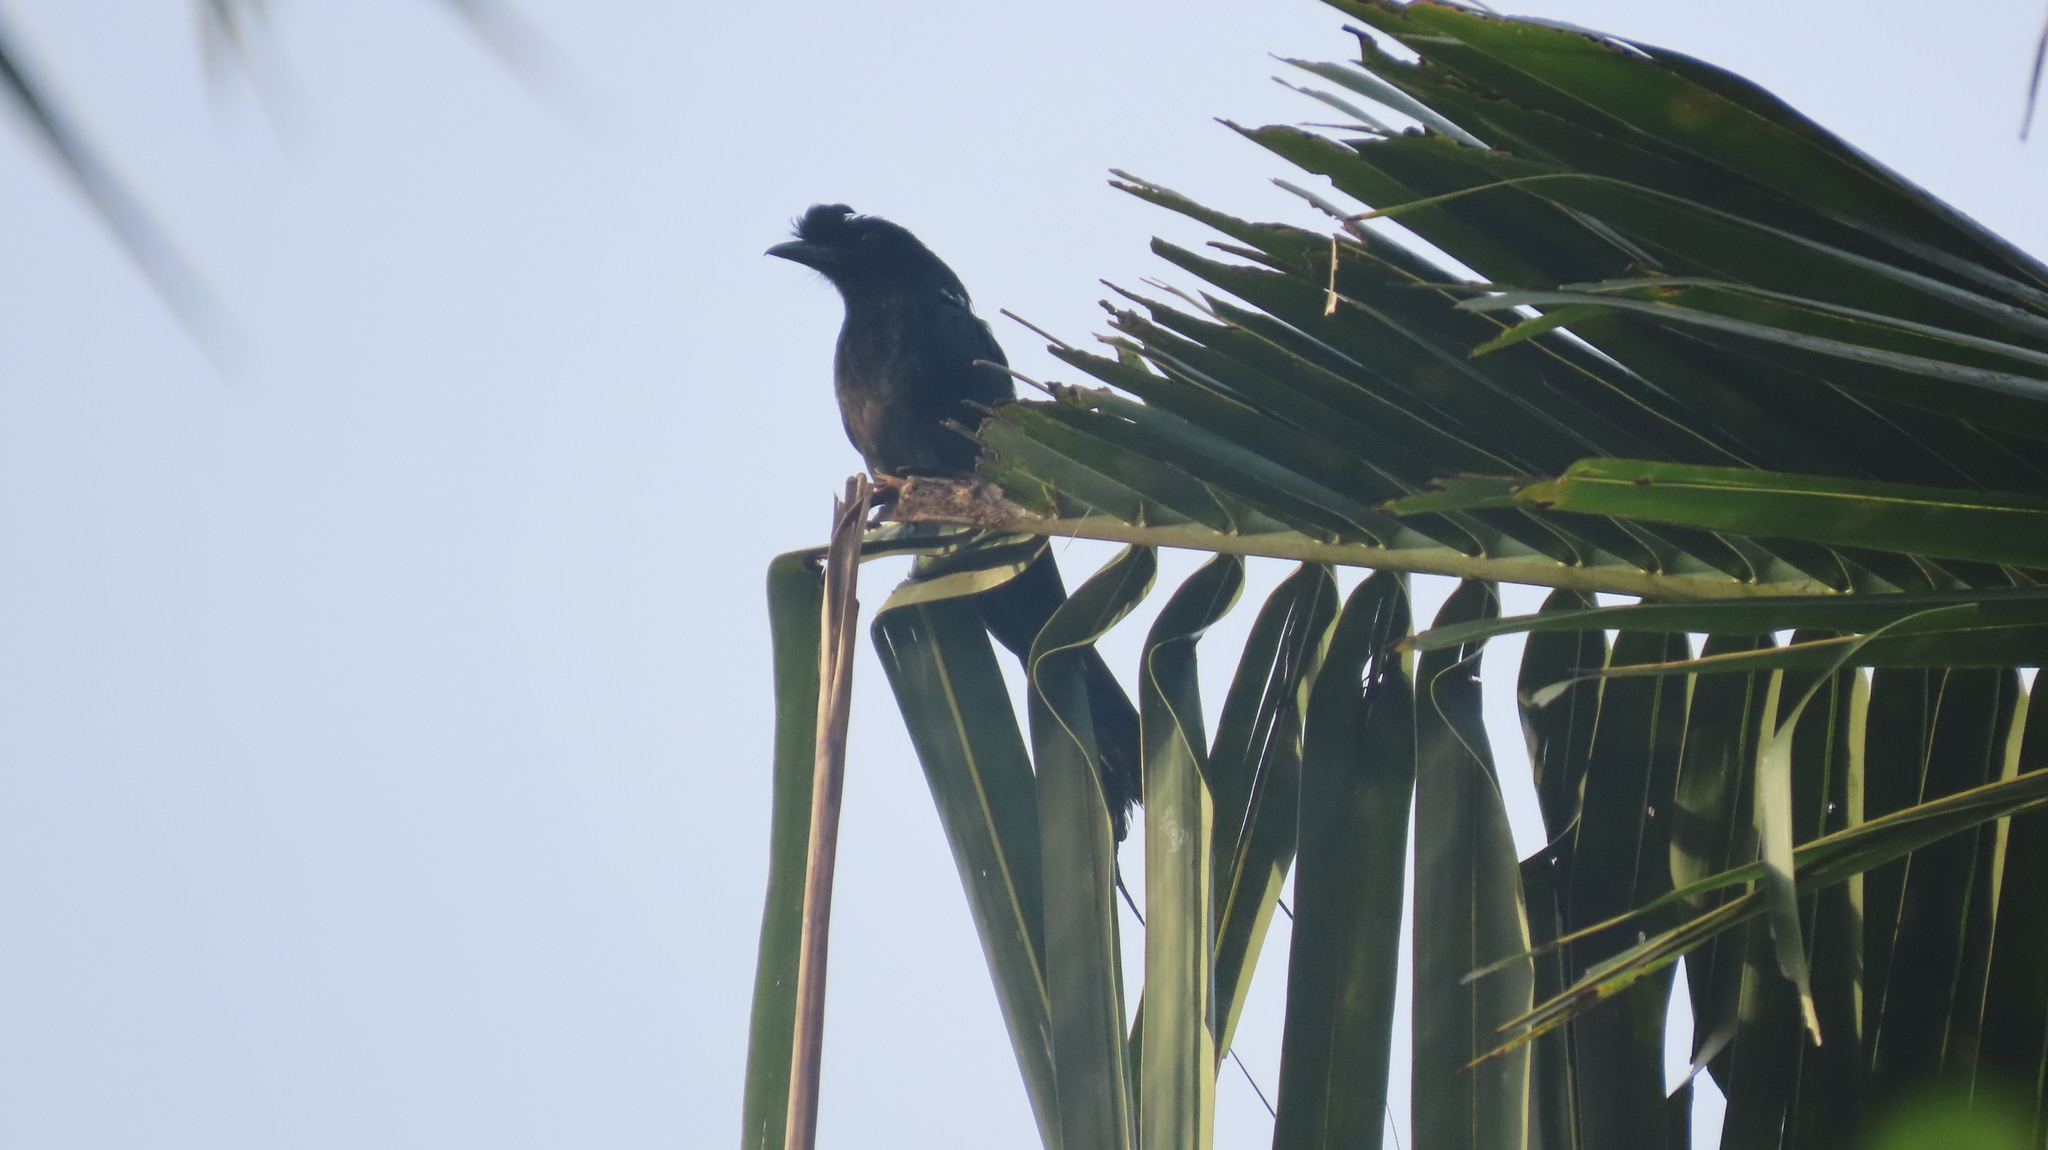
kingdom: Animalia
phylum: Chordata
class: Aves
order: Passeriformes
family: Dicruridae
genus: Dicrurus
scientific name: Dicrurus paradiseus
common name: Greater racket-tailed drongo
